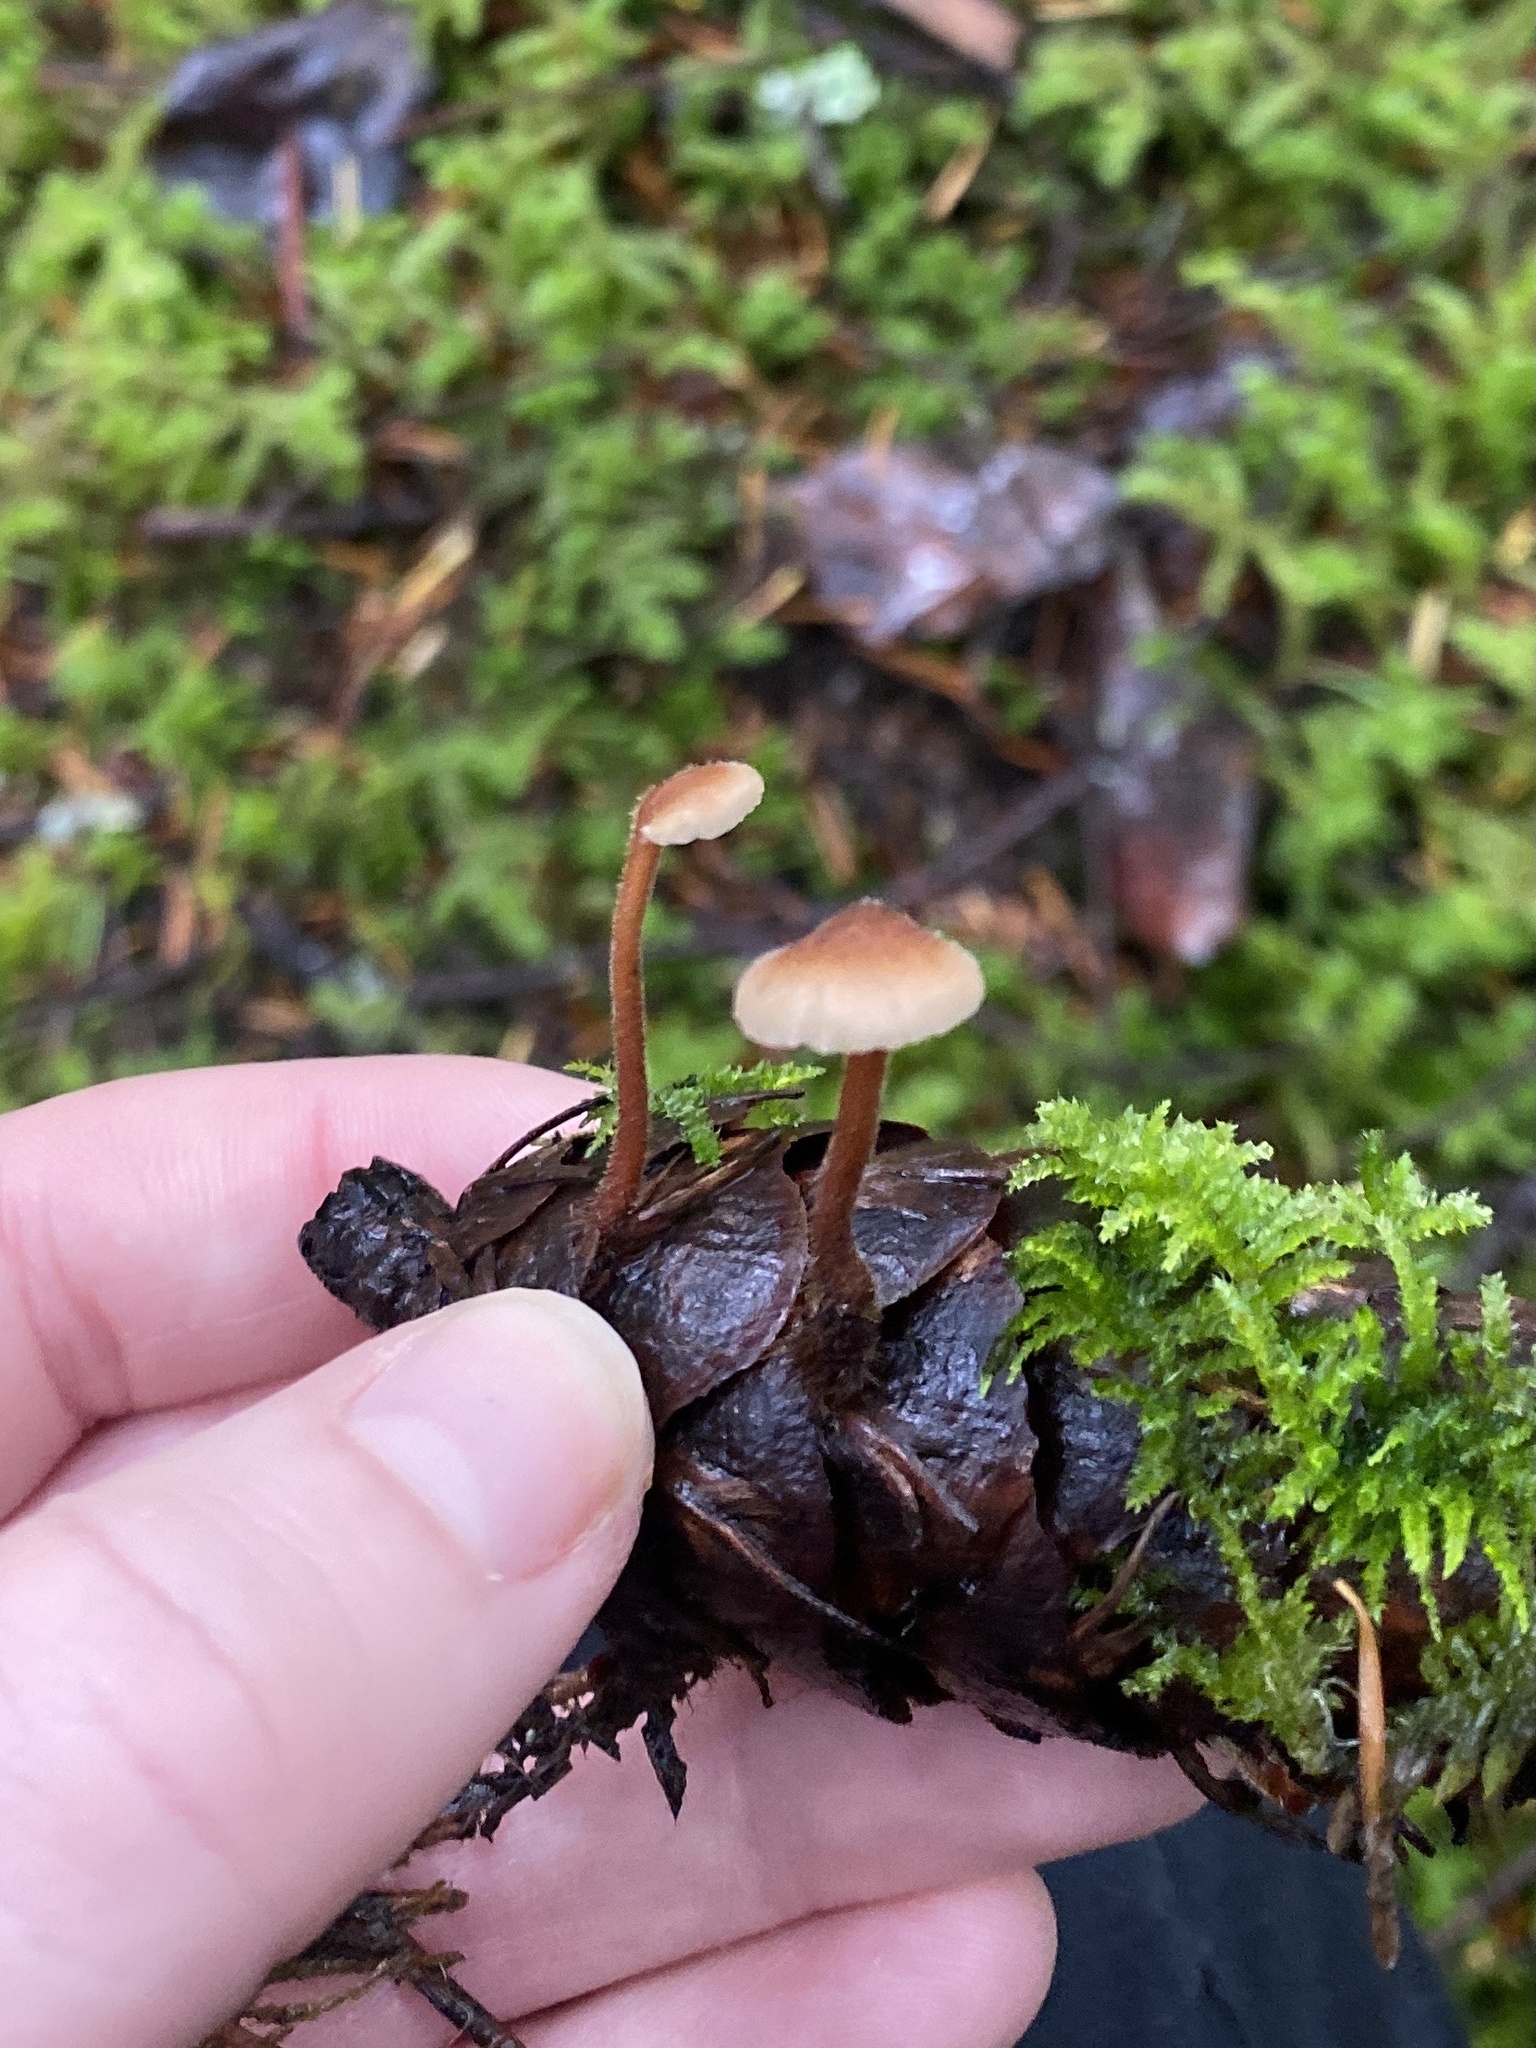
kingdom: Fungi
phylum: Basidiomycota
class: Agaricomycetes
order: Russulales
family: Auriscalpiaceae
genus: Auriscalpium
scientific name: Auriscalpium vulgare
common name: Earpick fungus
